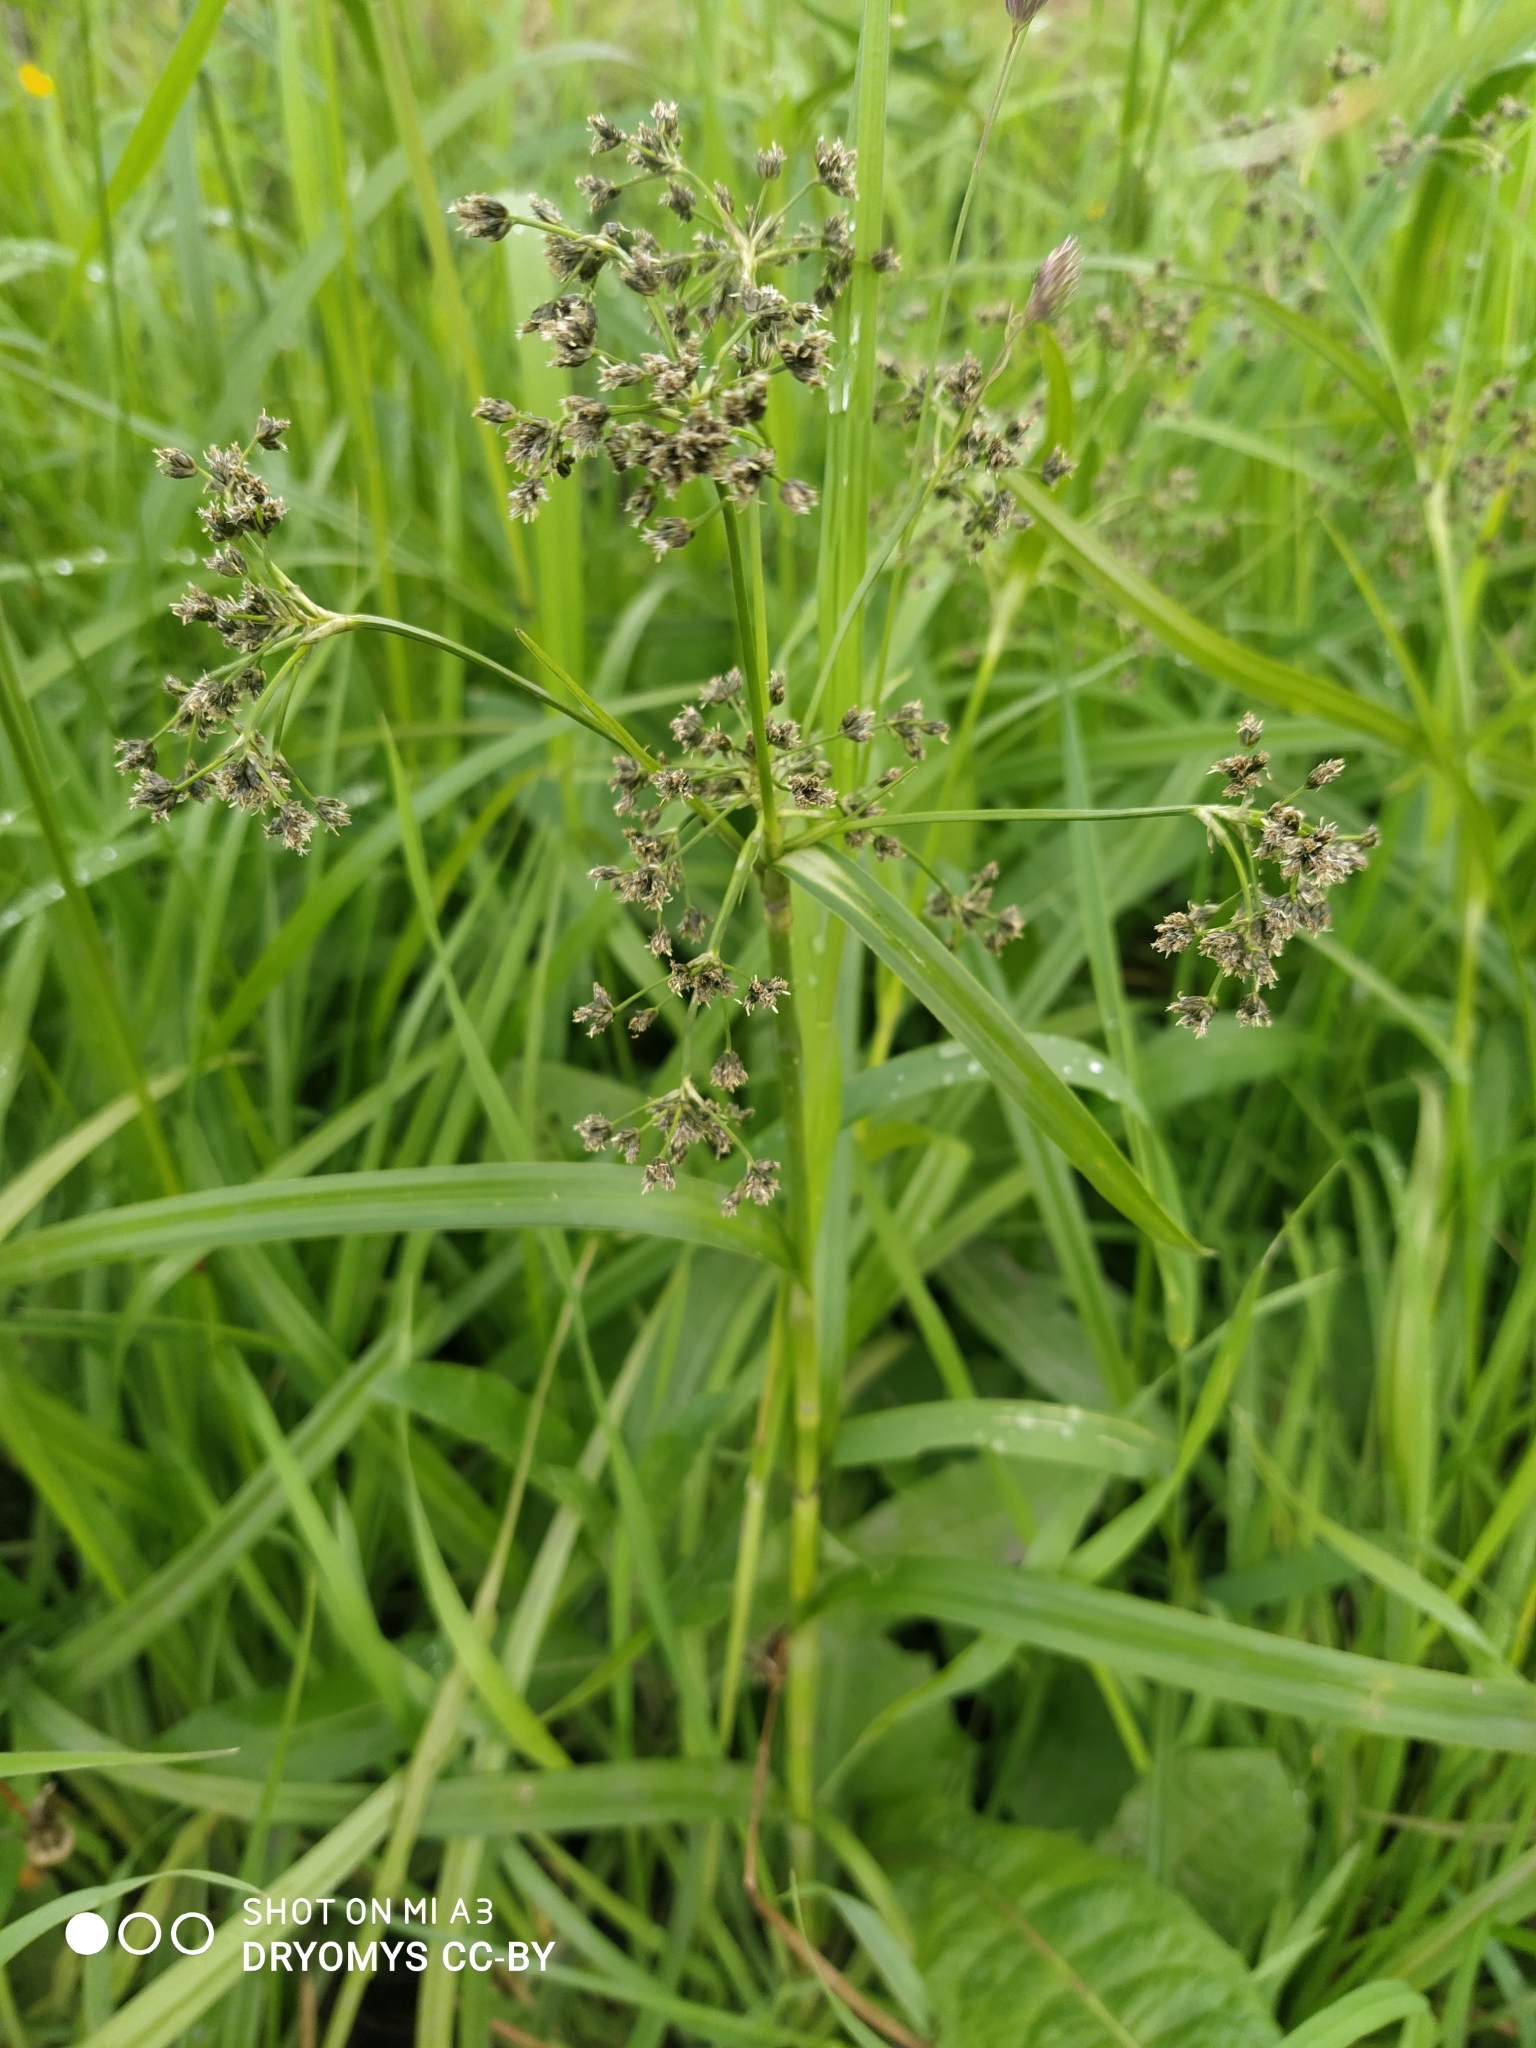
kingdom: Plantae
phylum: Tracheophyta
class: Liliopsida
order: Poales
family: Cyperaceae
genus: Scirpus
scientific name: Scirpus sylvaticus
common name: Wood club-rush
